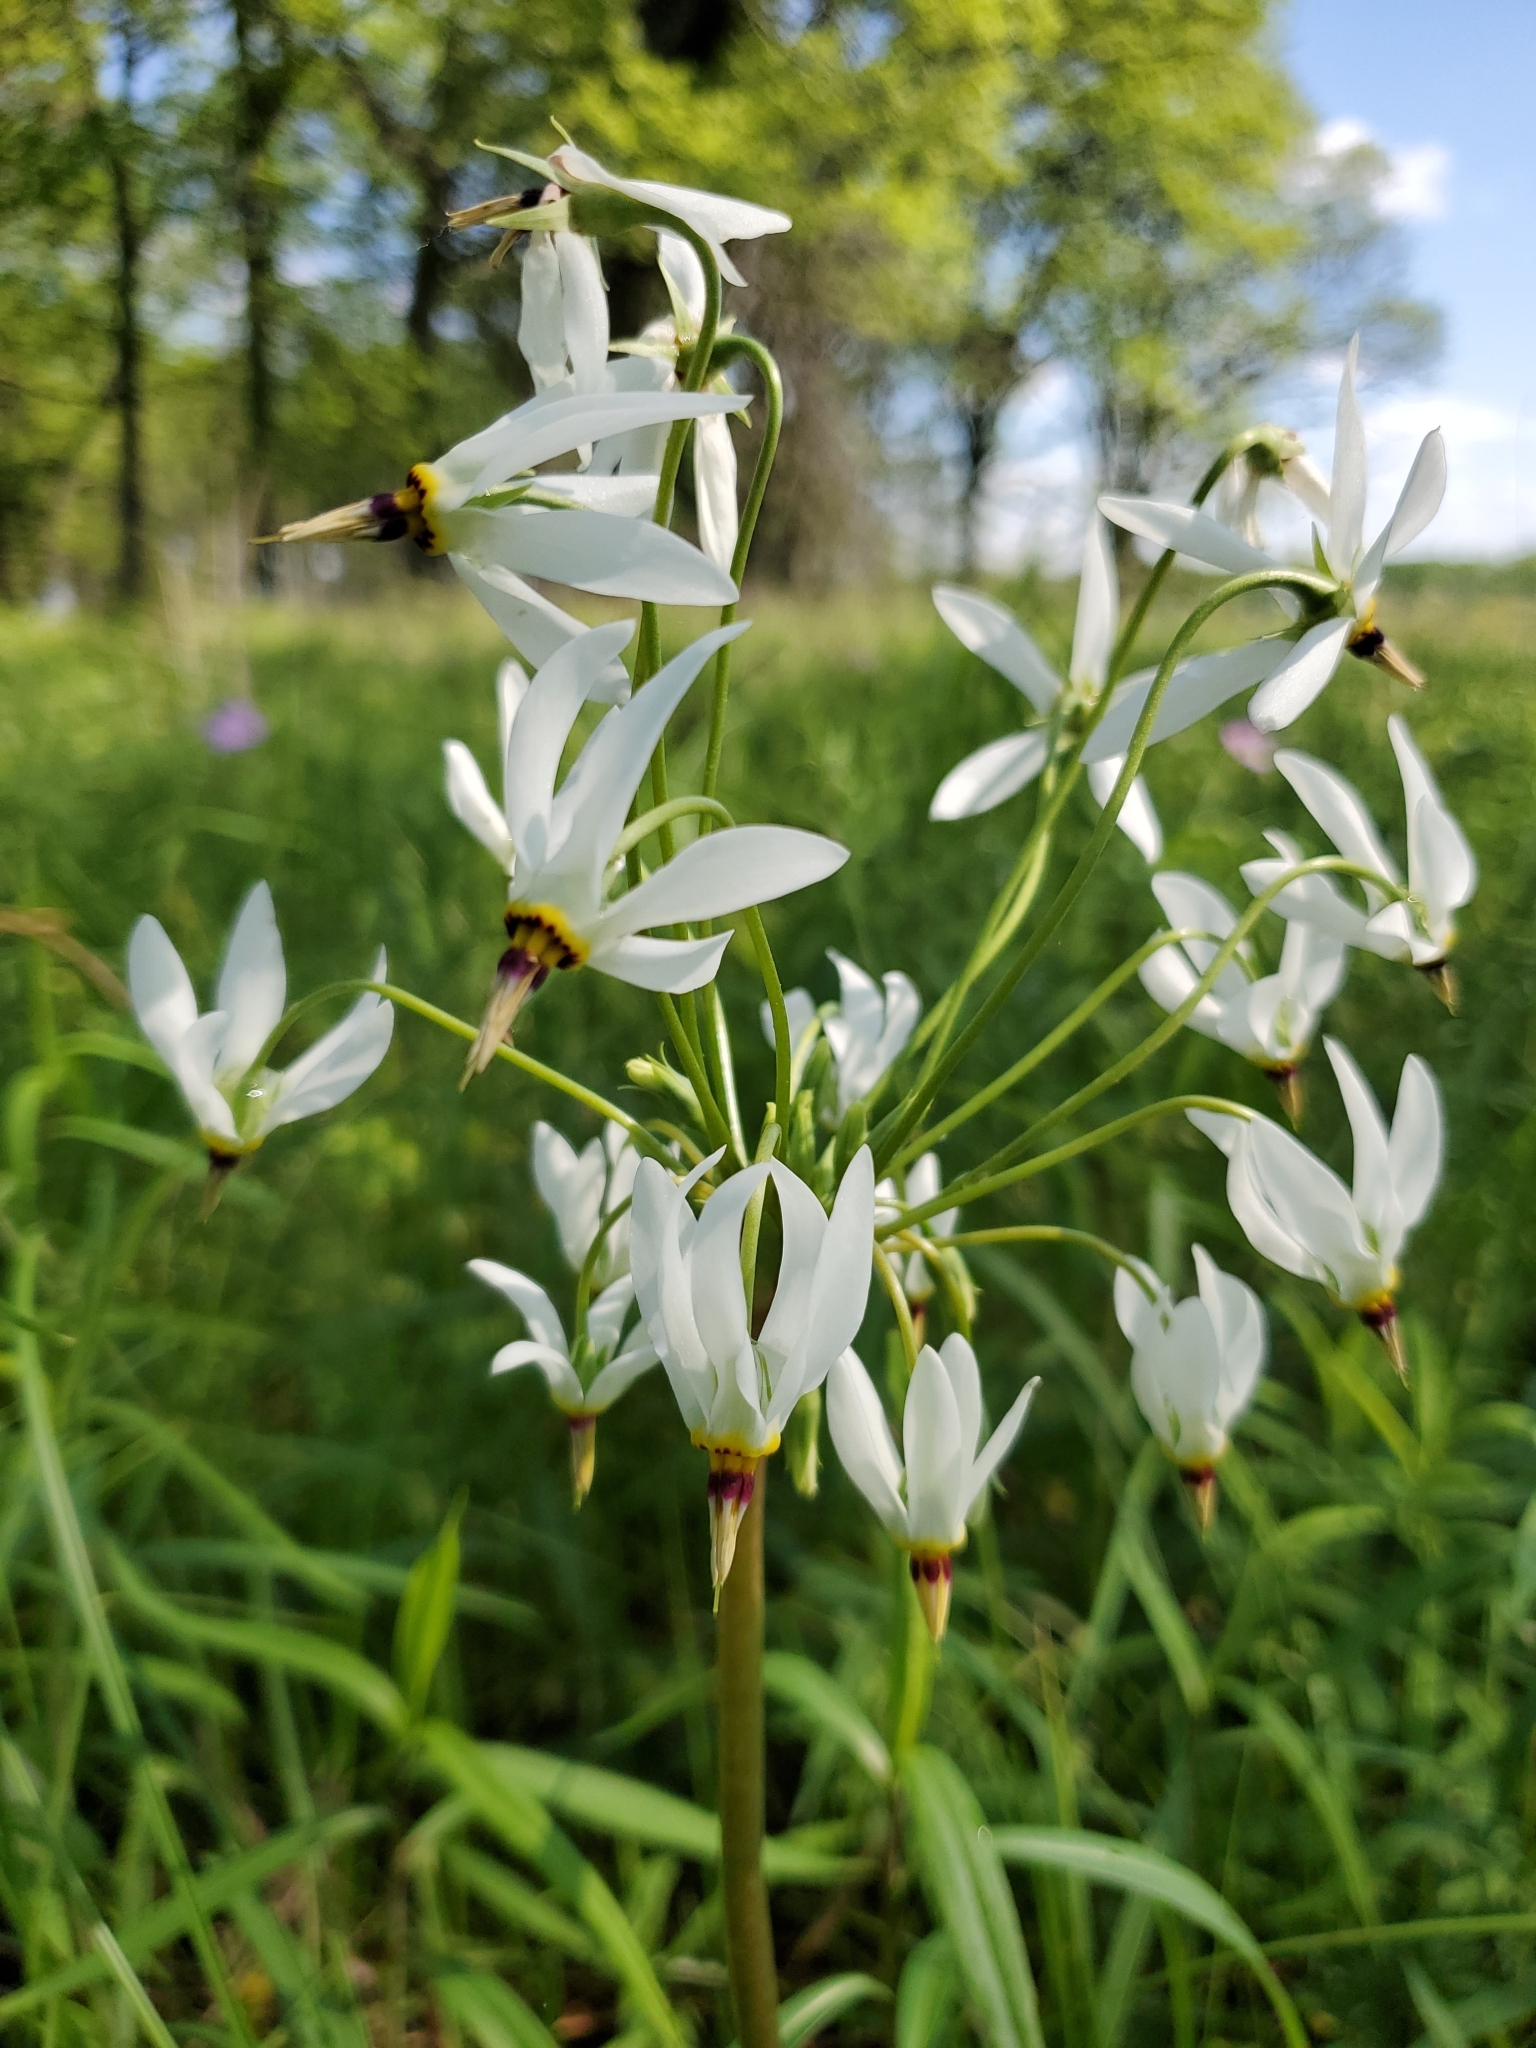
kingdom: Plantae
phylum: Tracheophyta
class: Magnoliopsida
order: Ericales
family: Primulaceae
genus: Dodecatheon
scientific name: Dodecatheon meadia
